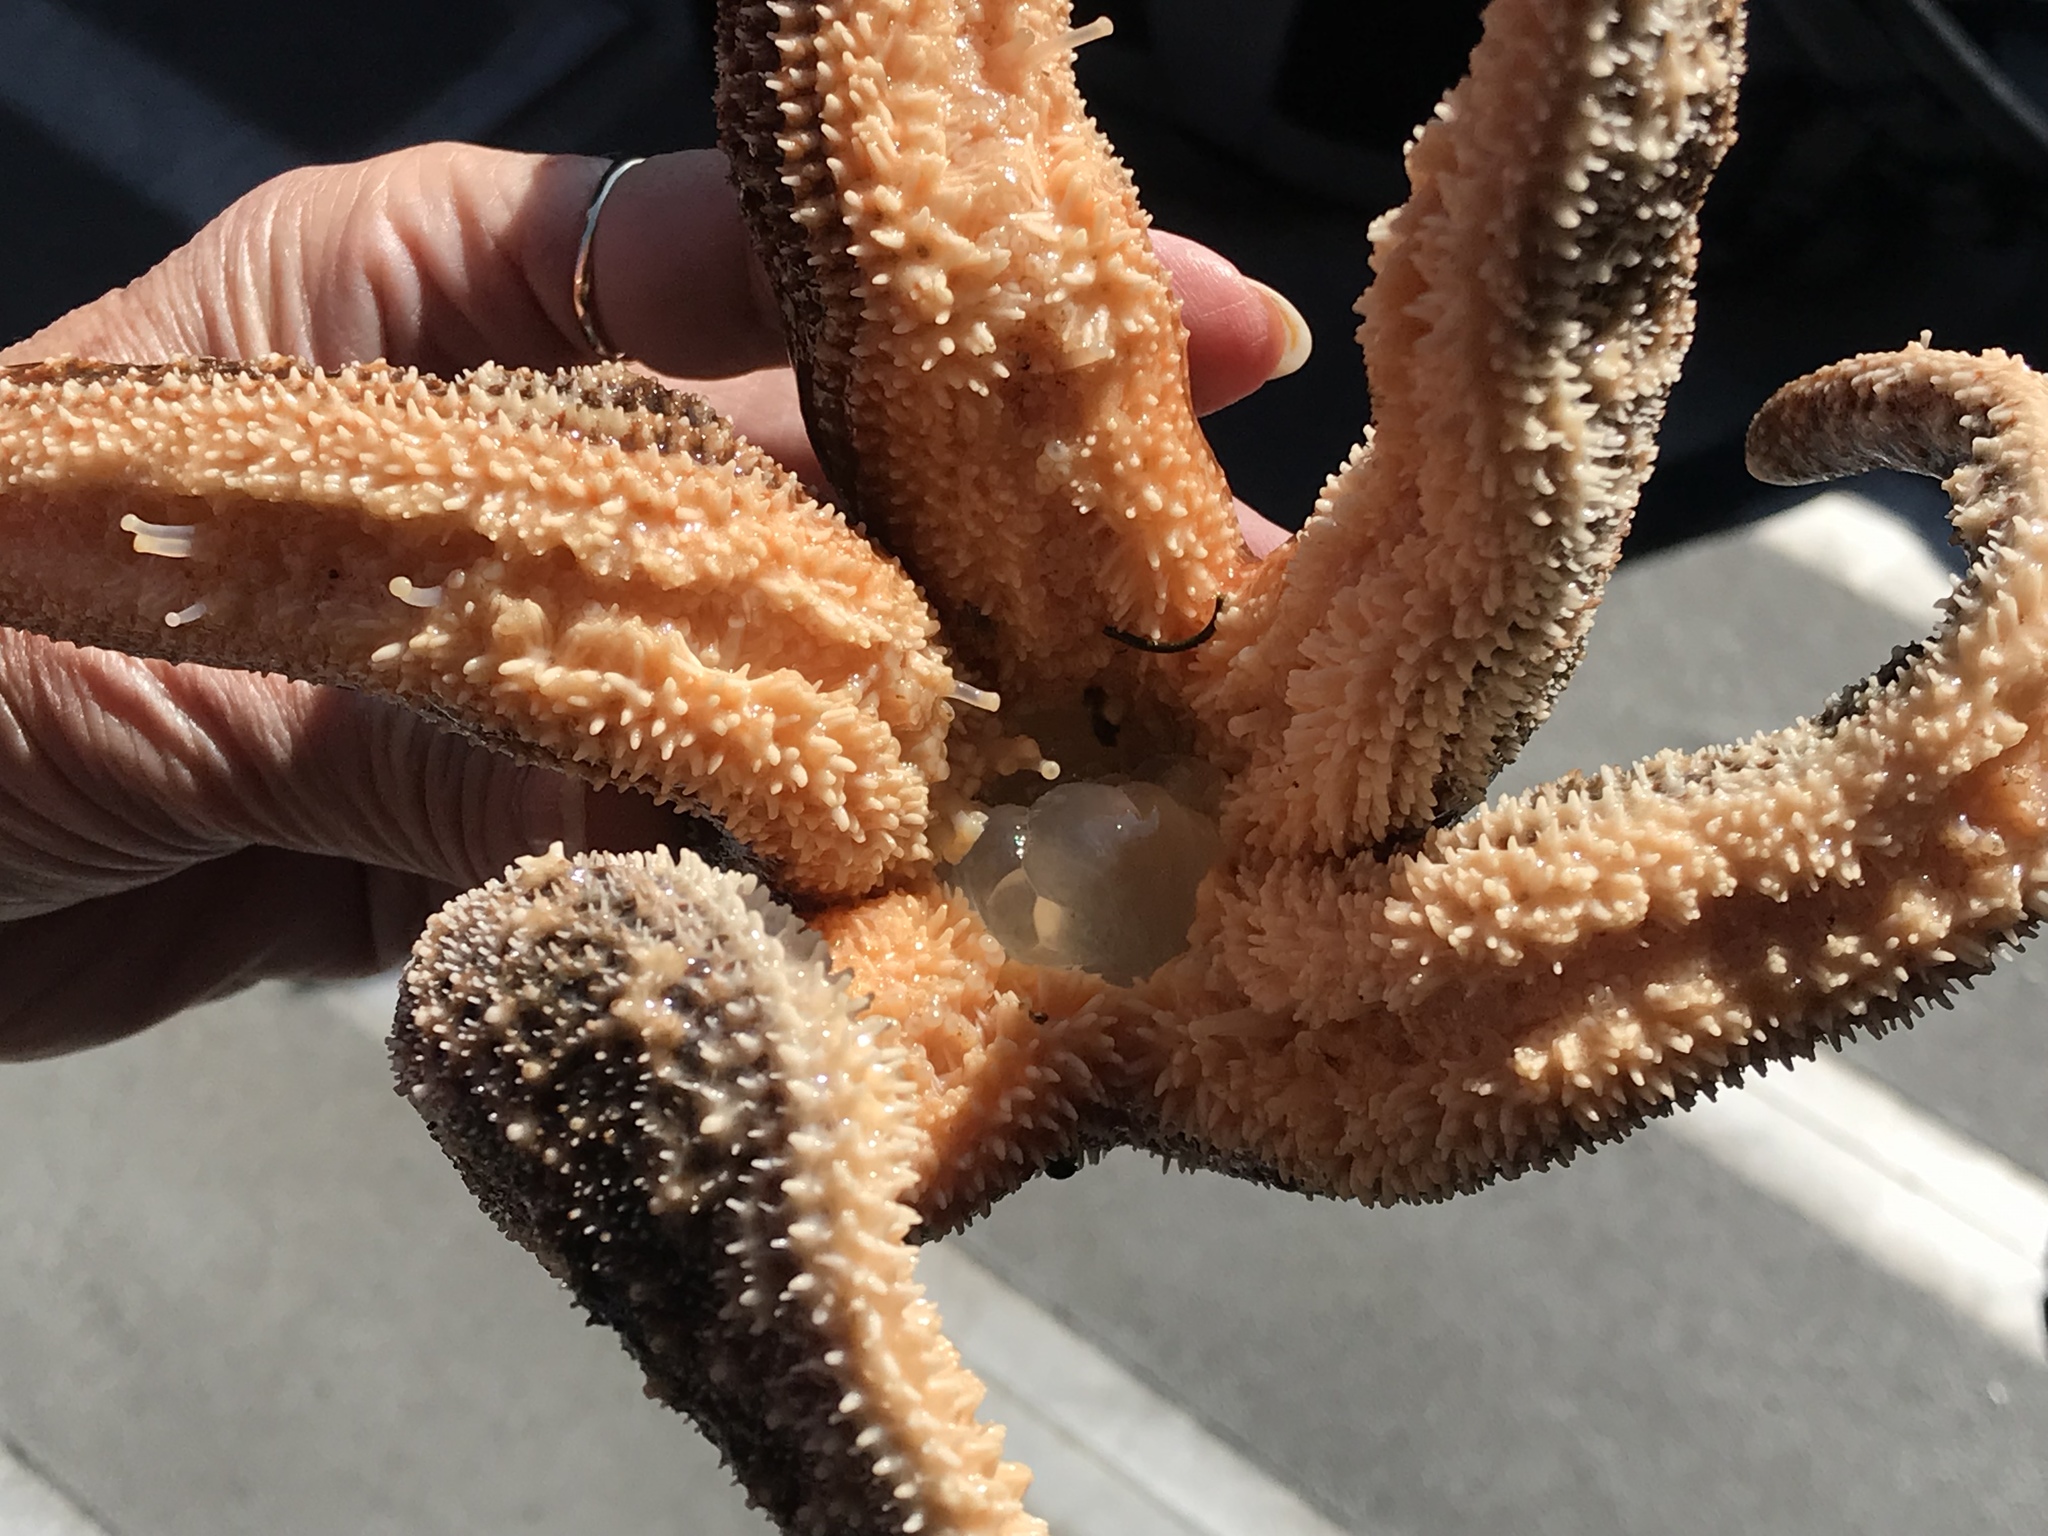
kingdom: Animalia
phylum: Echinodermata
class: Asteroidea
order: Forcipulatida
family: Asteriidae
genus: Evasterias
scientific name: Evasterias troschelii
